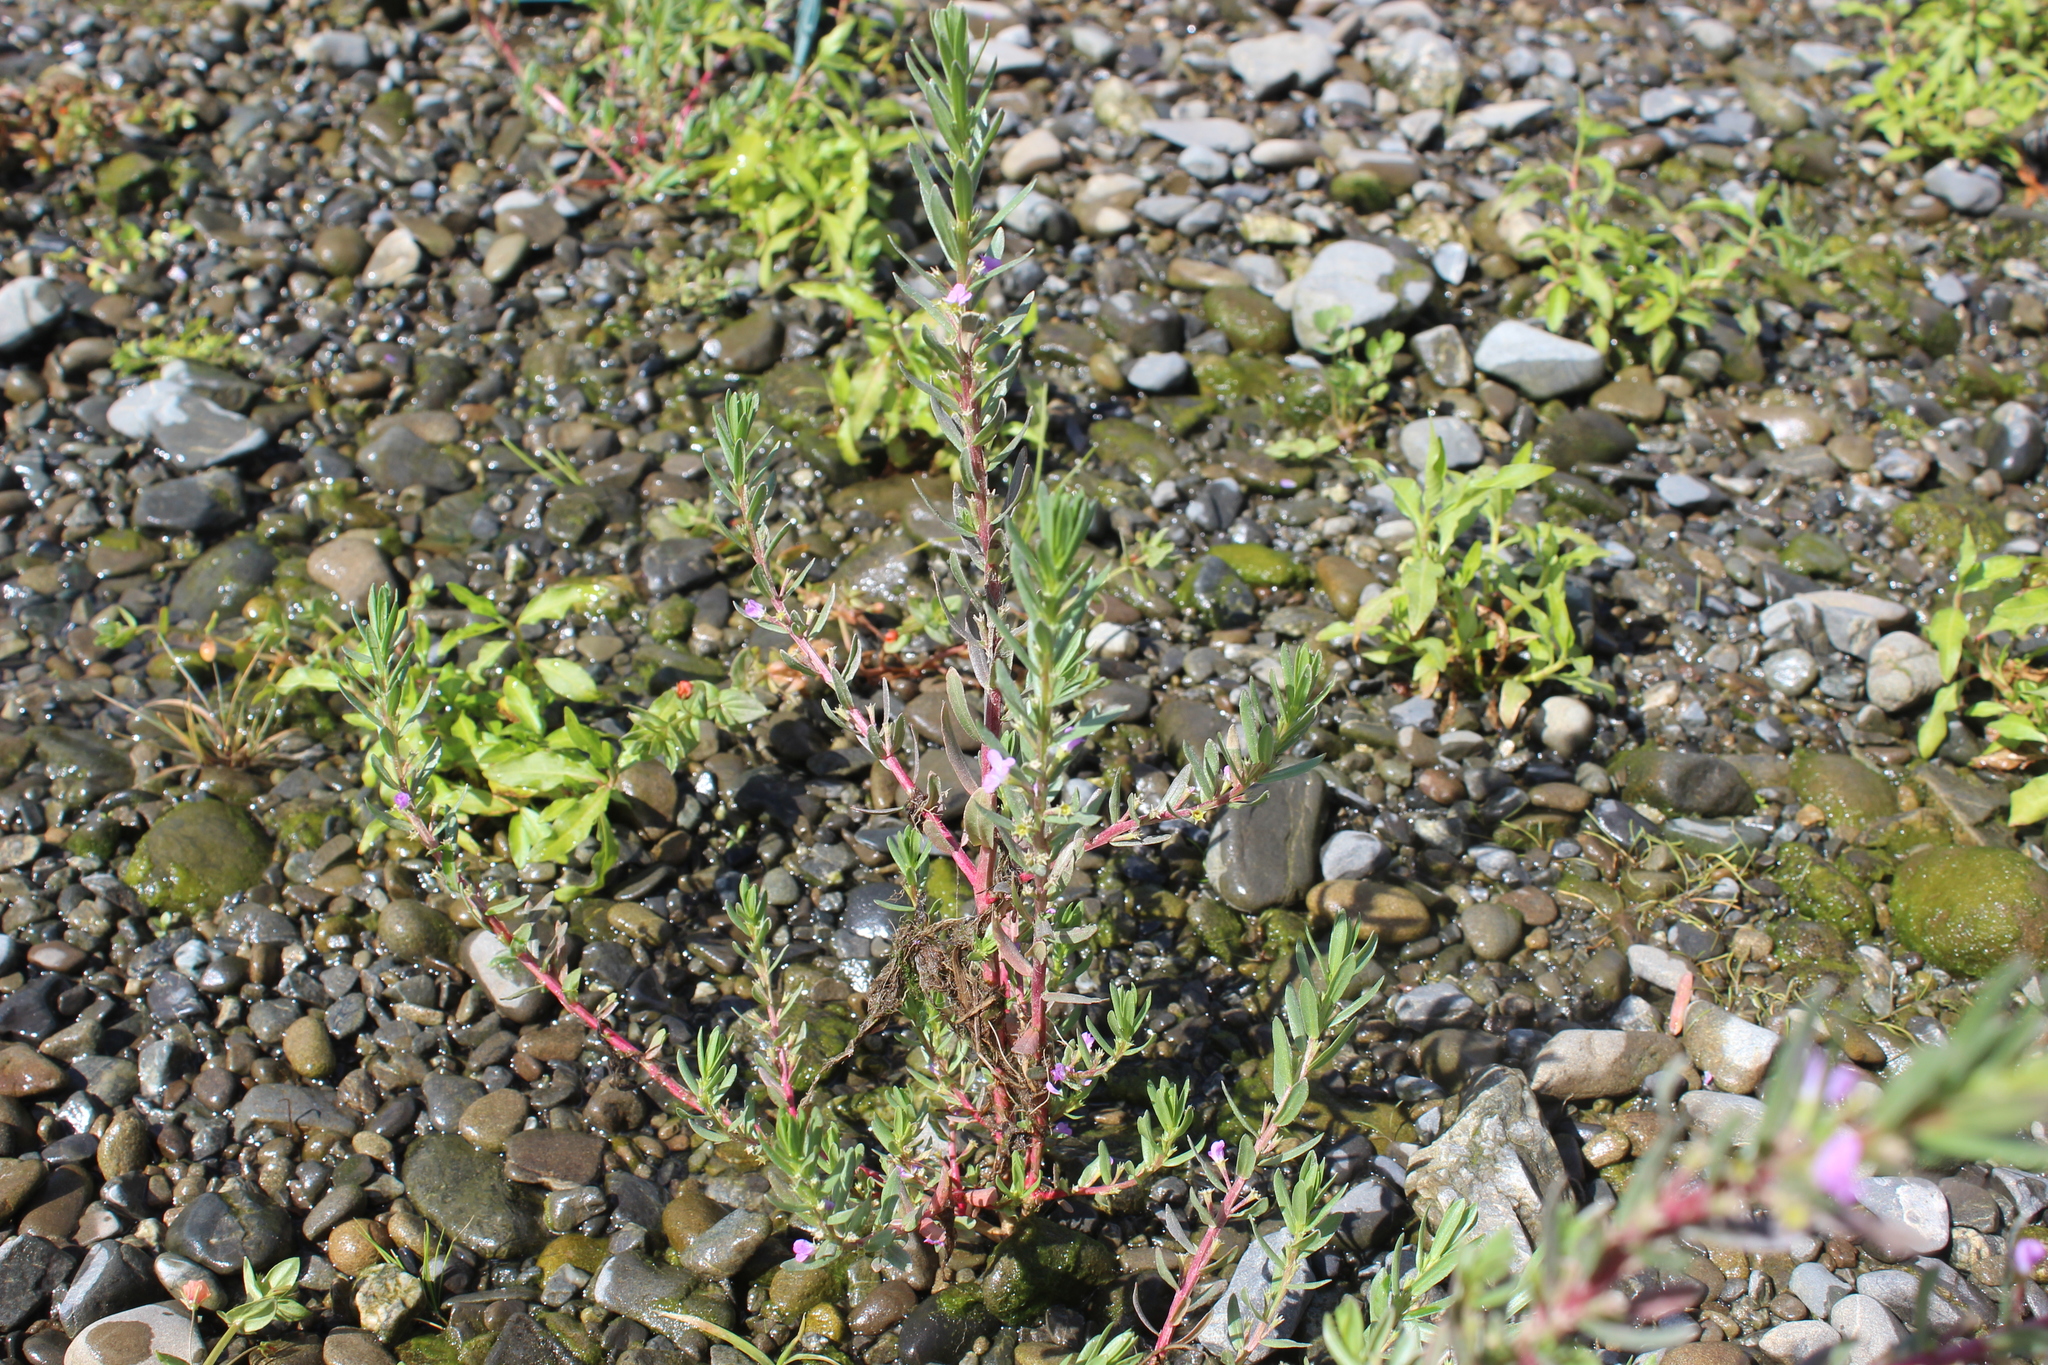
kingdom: Plantae
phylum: Tracheophyta
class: Magnoliopsida
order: Myrtales
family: Lythraceae
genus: Lythrum
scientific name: Lythrum hyssopifolia
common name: Grass-poly
